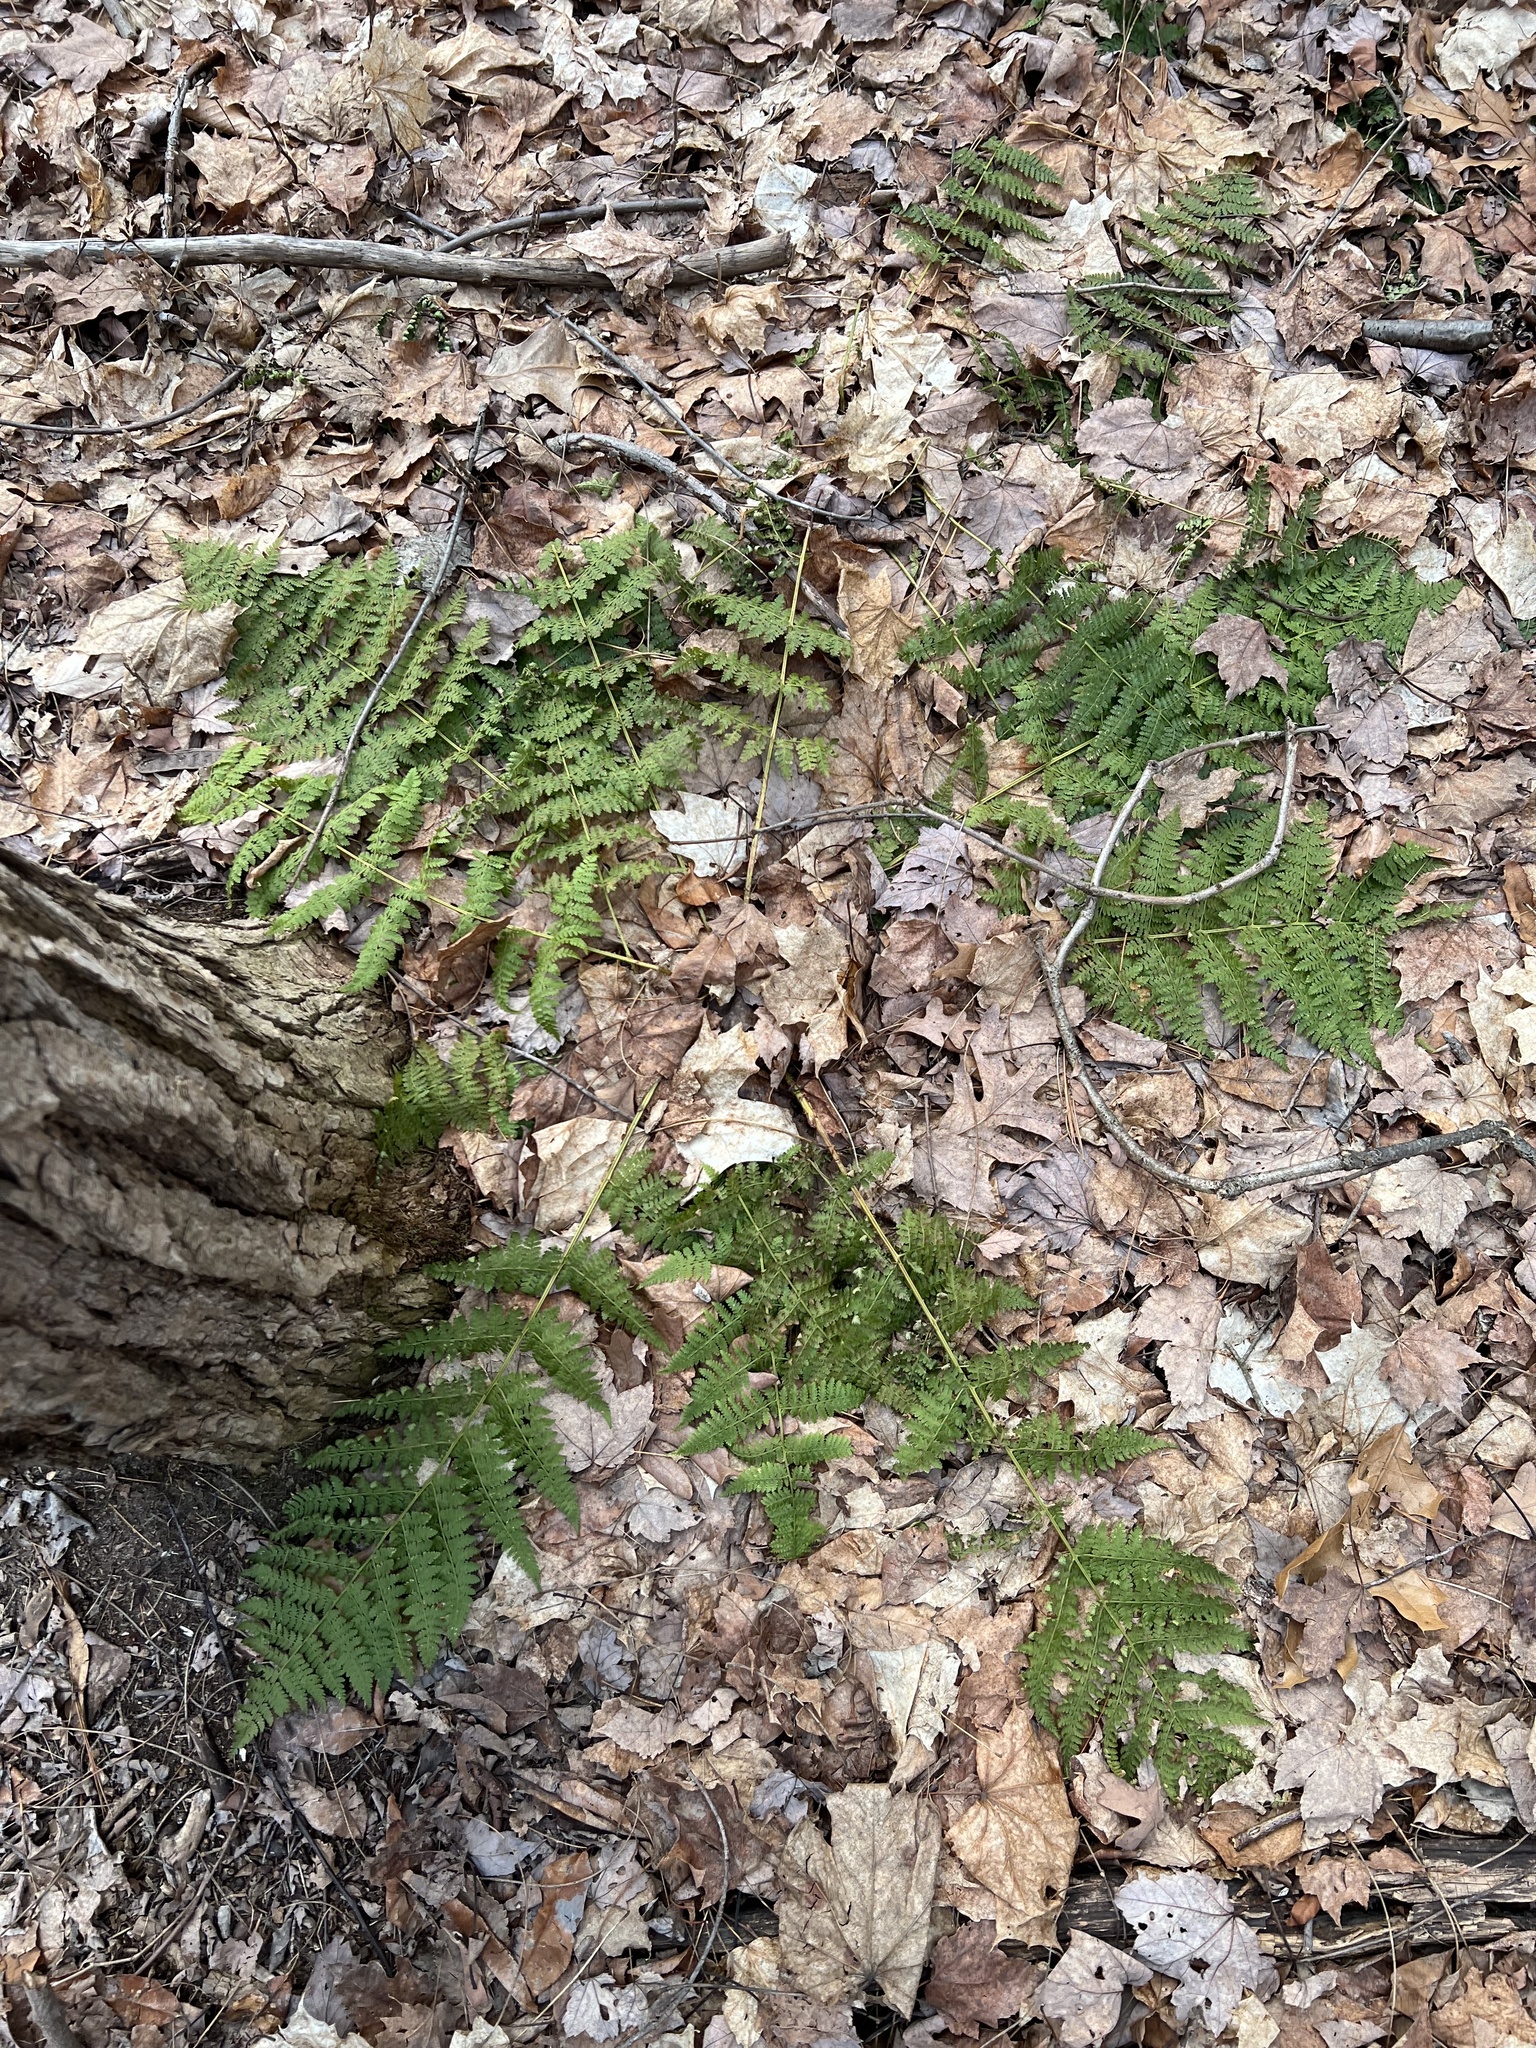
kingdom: Plantae
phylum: Tracheophyta
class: Polypodiopsida
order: Polypodiales
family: Dryopteridaceae
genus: Dryopteris
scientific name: Dryopteris intermedia
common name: Evergreen wood fern
